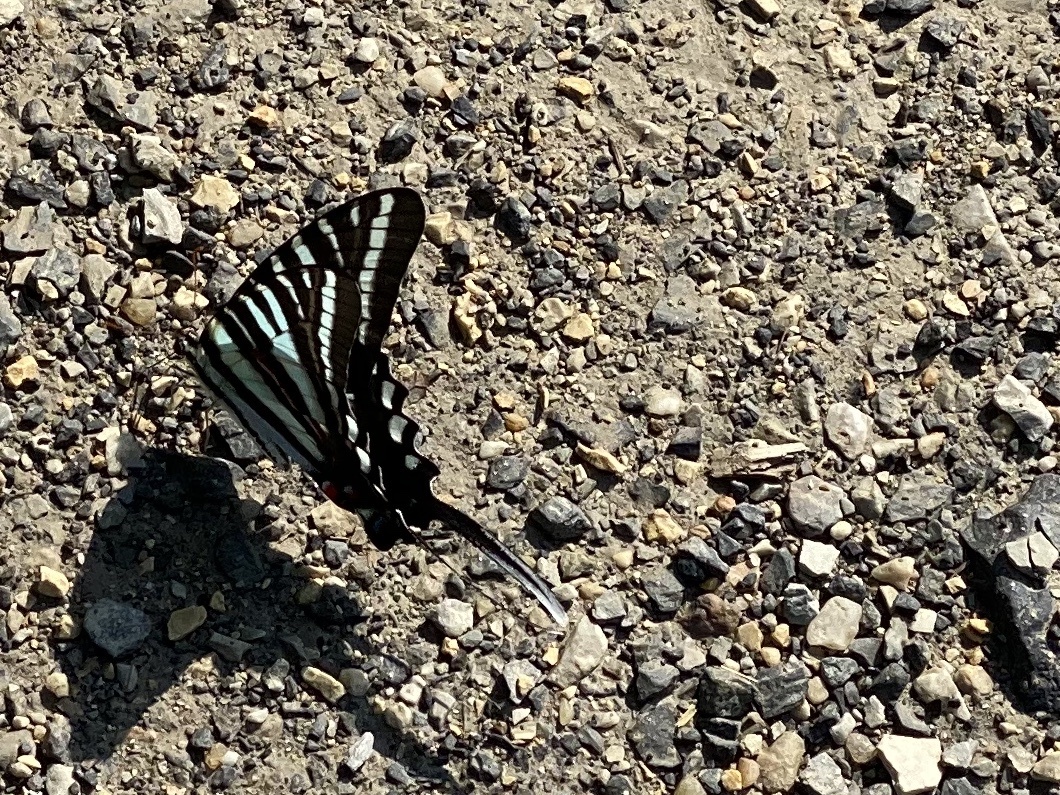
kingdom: Animalia
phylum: Arthropoda
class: Insecta
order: Lepidoptera
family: Papilionidae
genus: Protographium
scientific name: Protographium marcellus
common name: Zebra swallowtail
